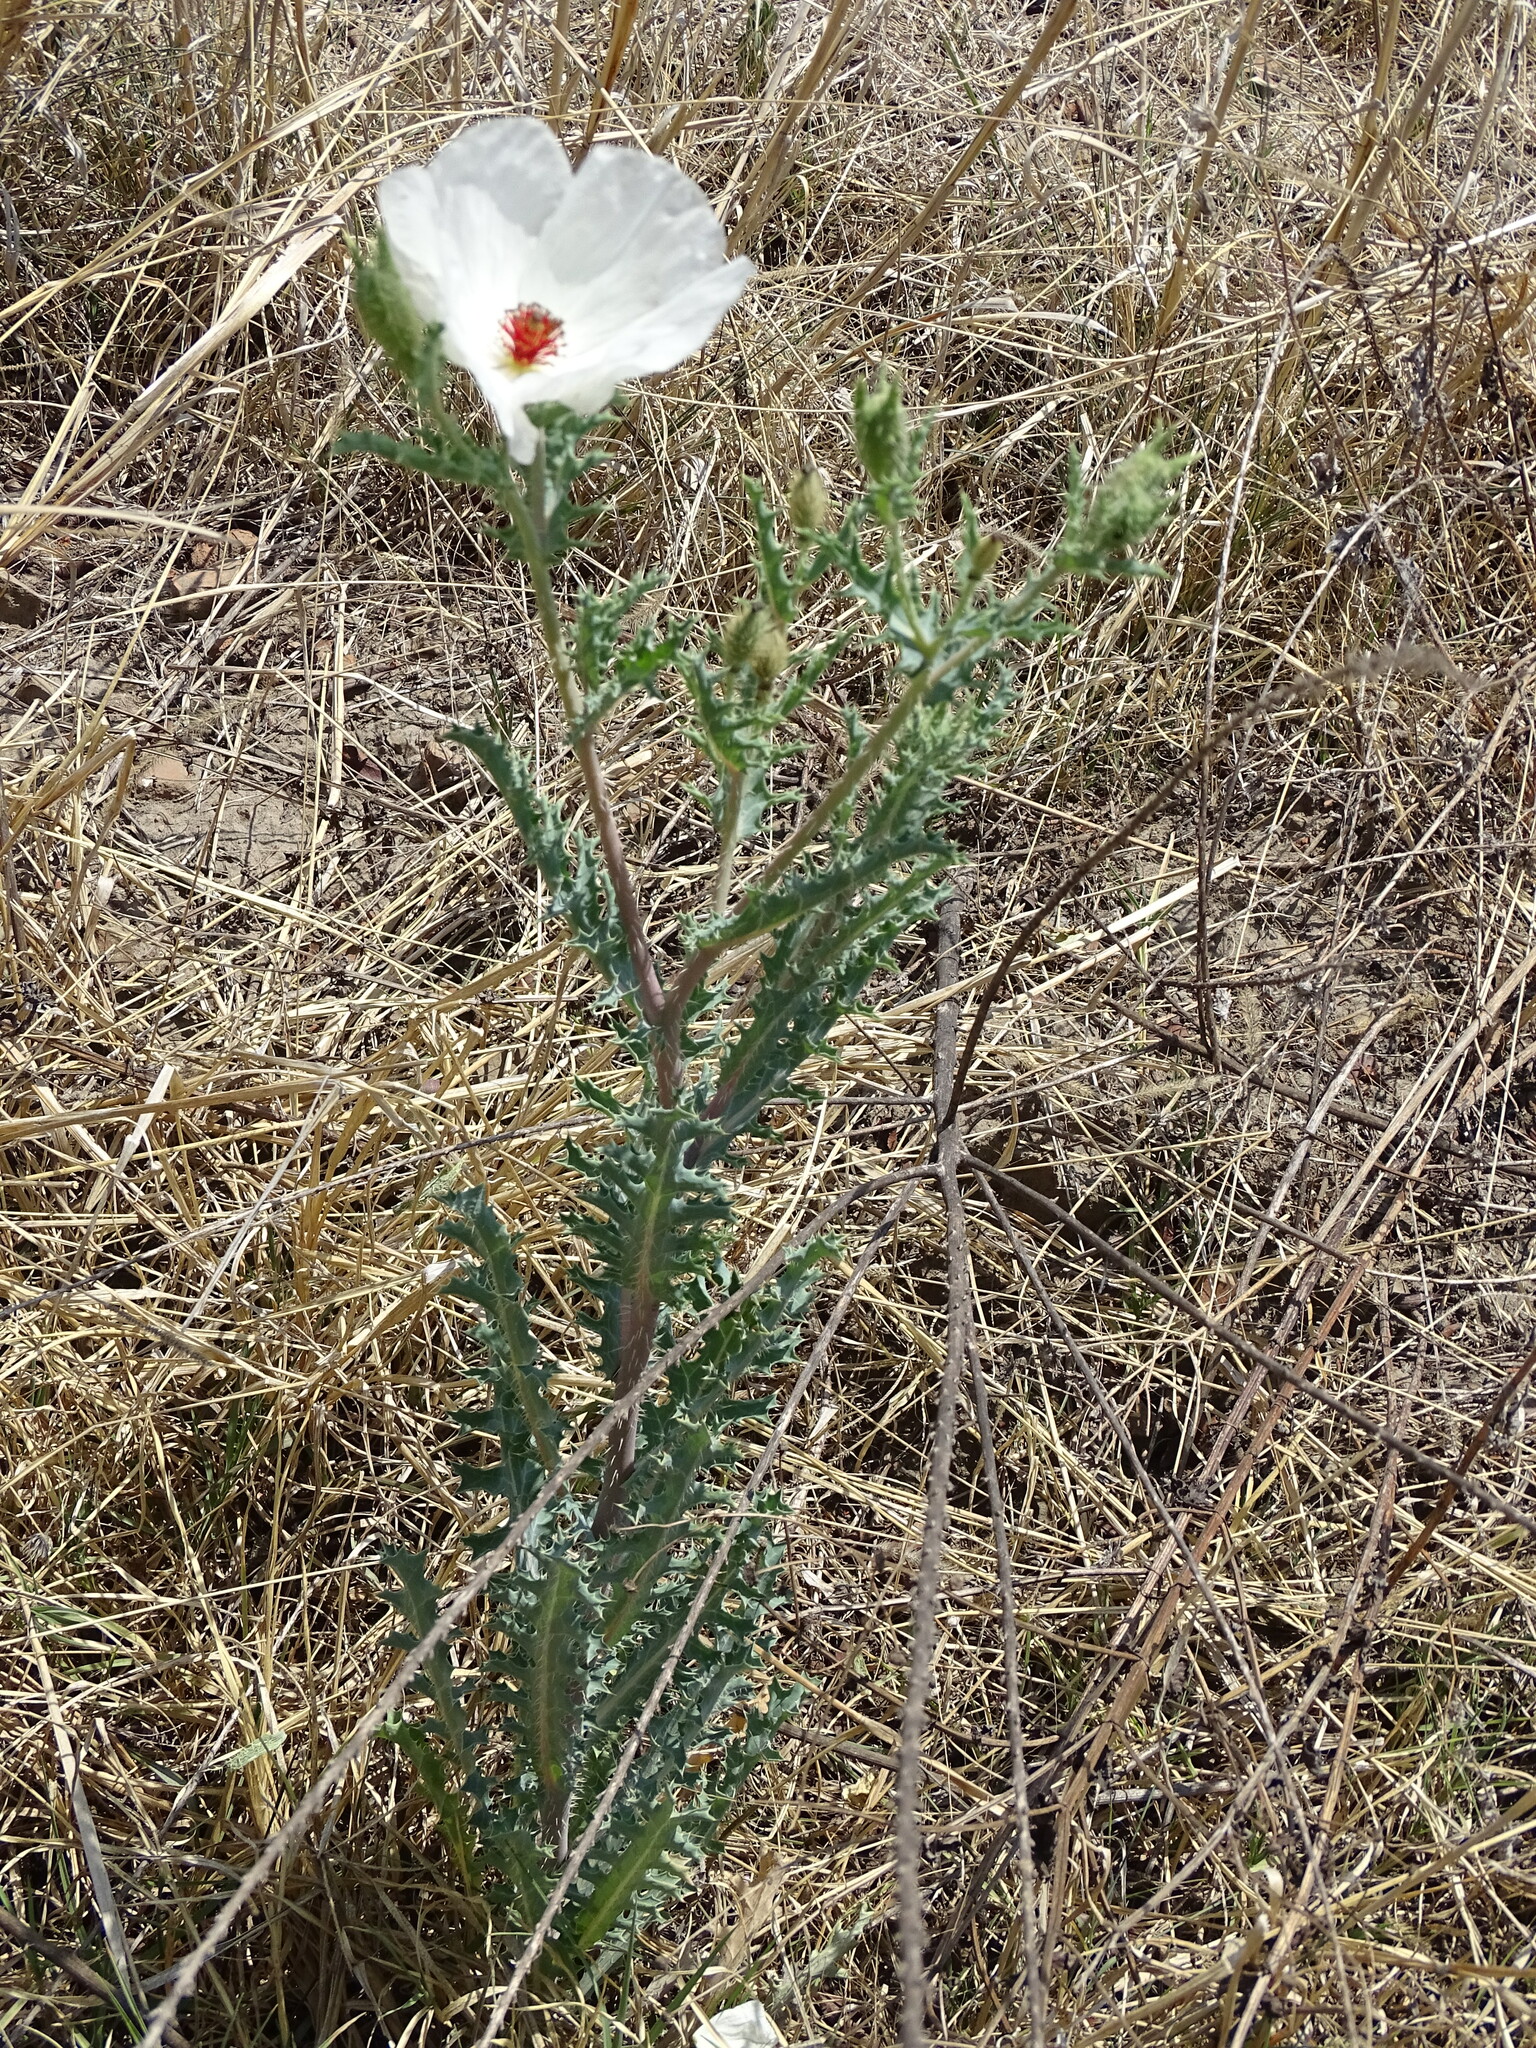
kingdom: Plantae
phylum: Tracheophyta
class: Magnoliopsida
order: Ranunculales
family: Papaveraceae
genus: Argemone
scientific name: Argemone platyceras
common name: Crested-poppy
